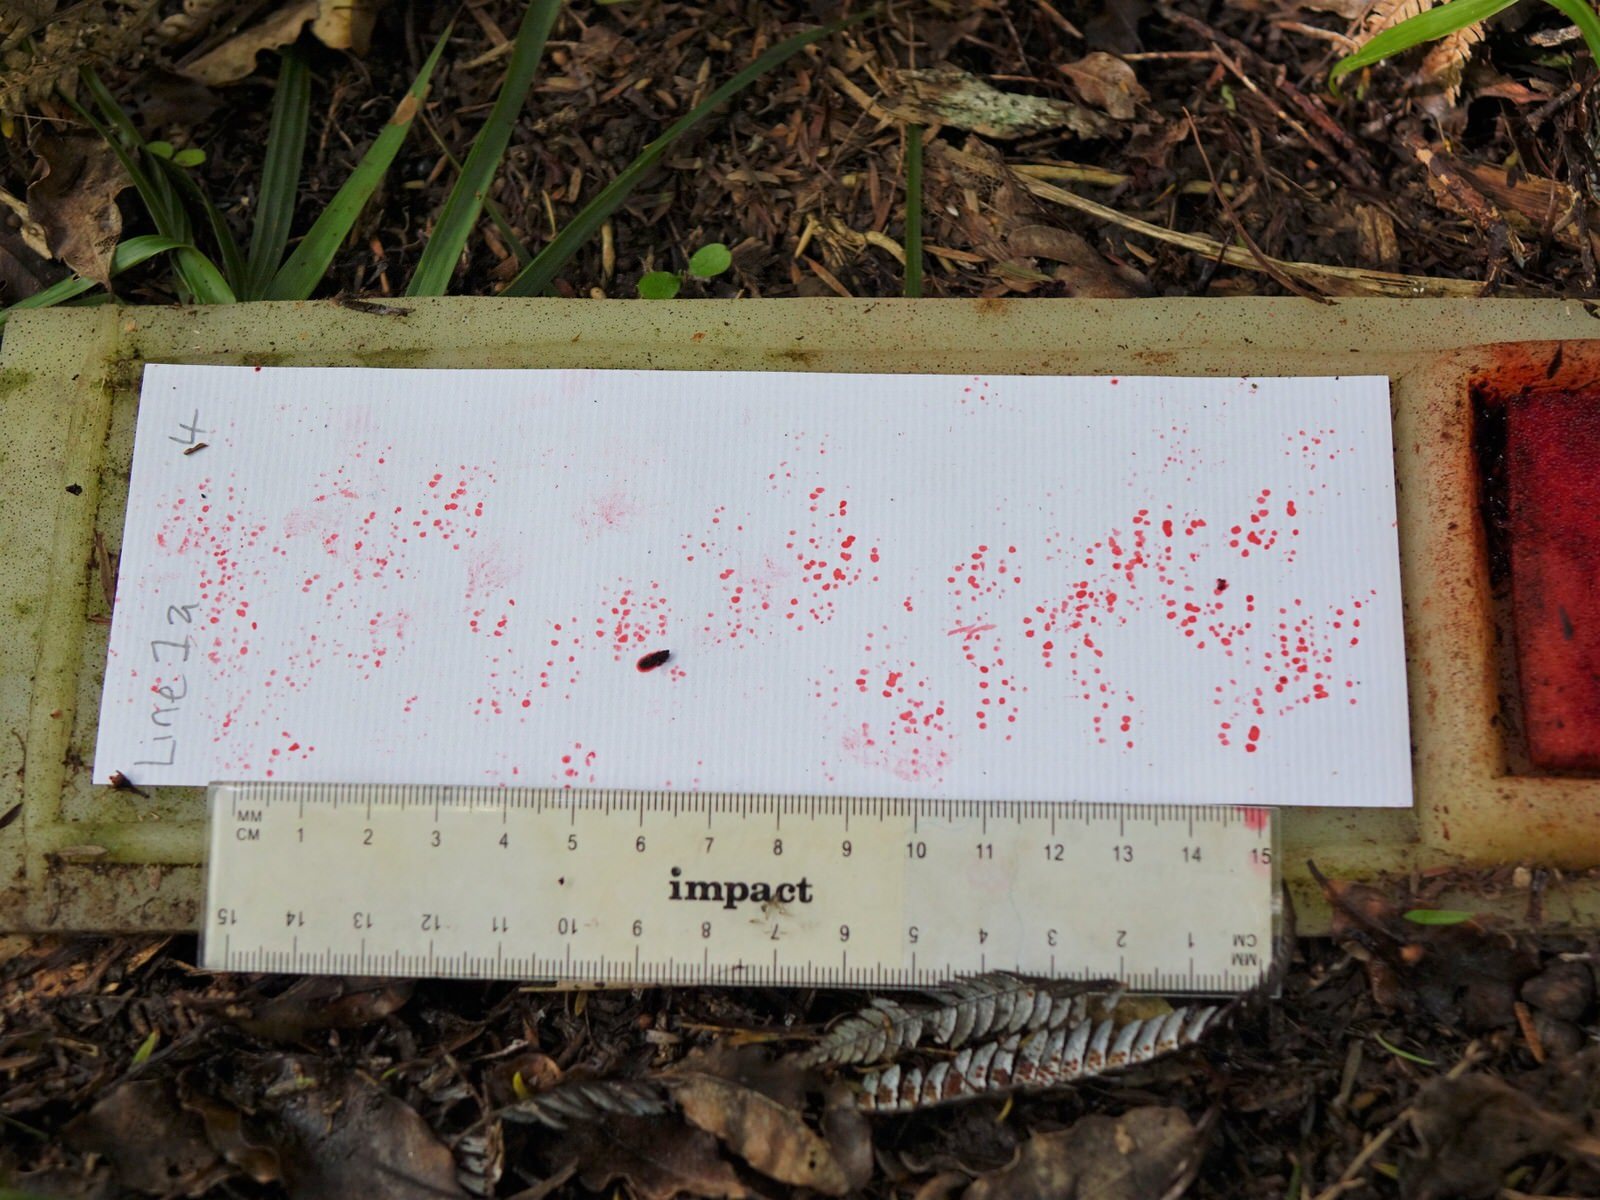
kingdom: Animalia
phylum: Chordata
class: Mammalia
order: Rodentia
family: Muridae
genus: Mus
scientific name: Mus musculus
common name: House mouse
